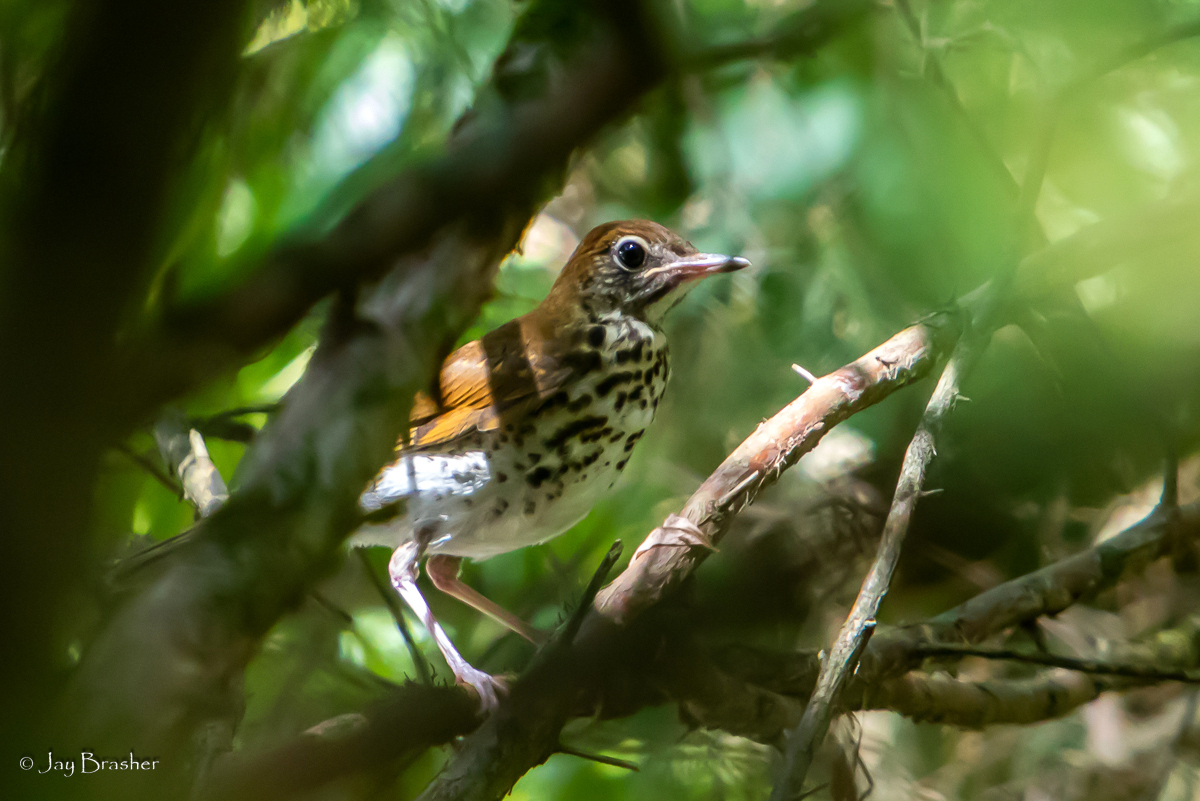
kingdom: Animalia
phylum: Chordata
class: Aves
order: Passeriformes
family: Turdidae
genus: Hylocichla
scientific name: Hylocichla mustelina
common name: Wood thrush
